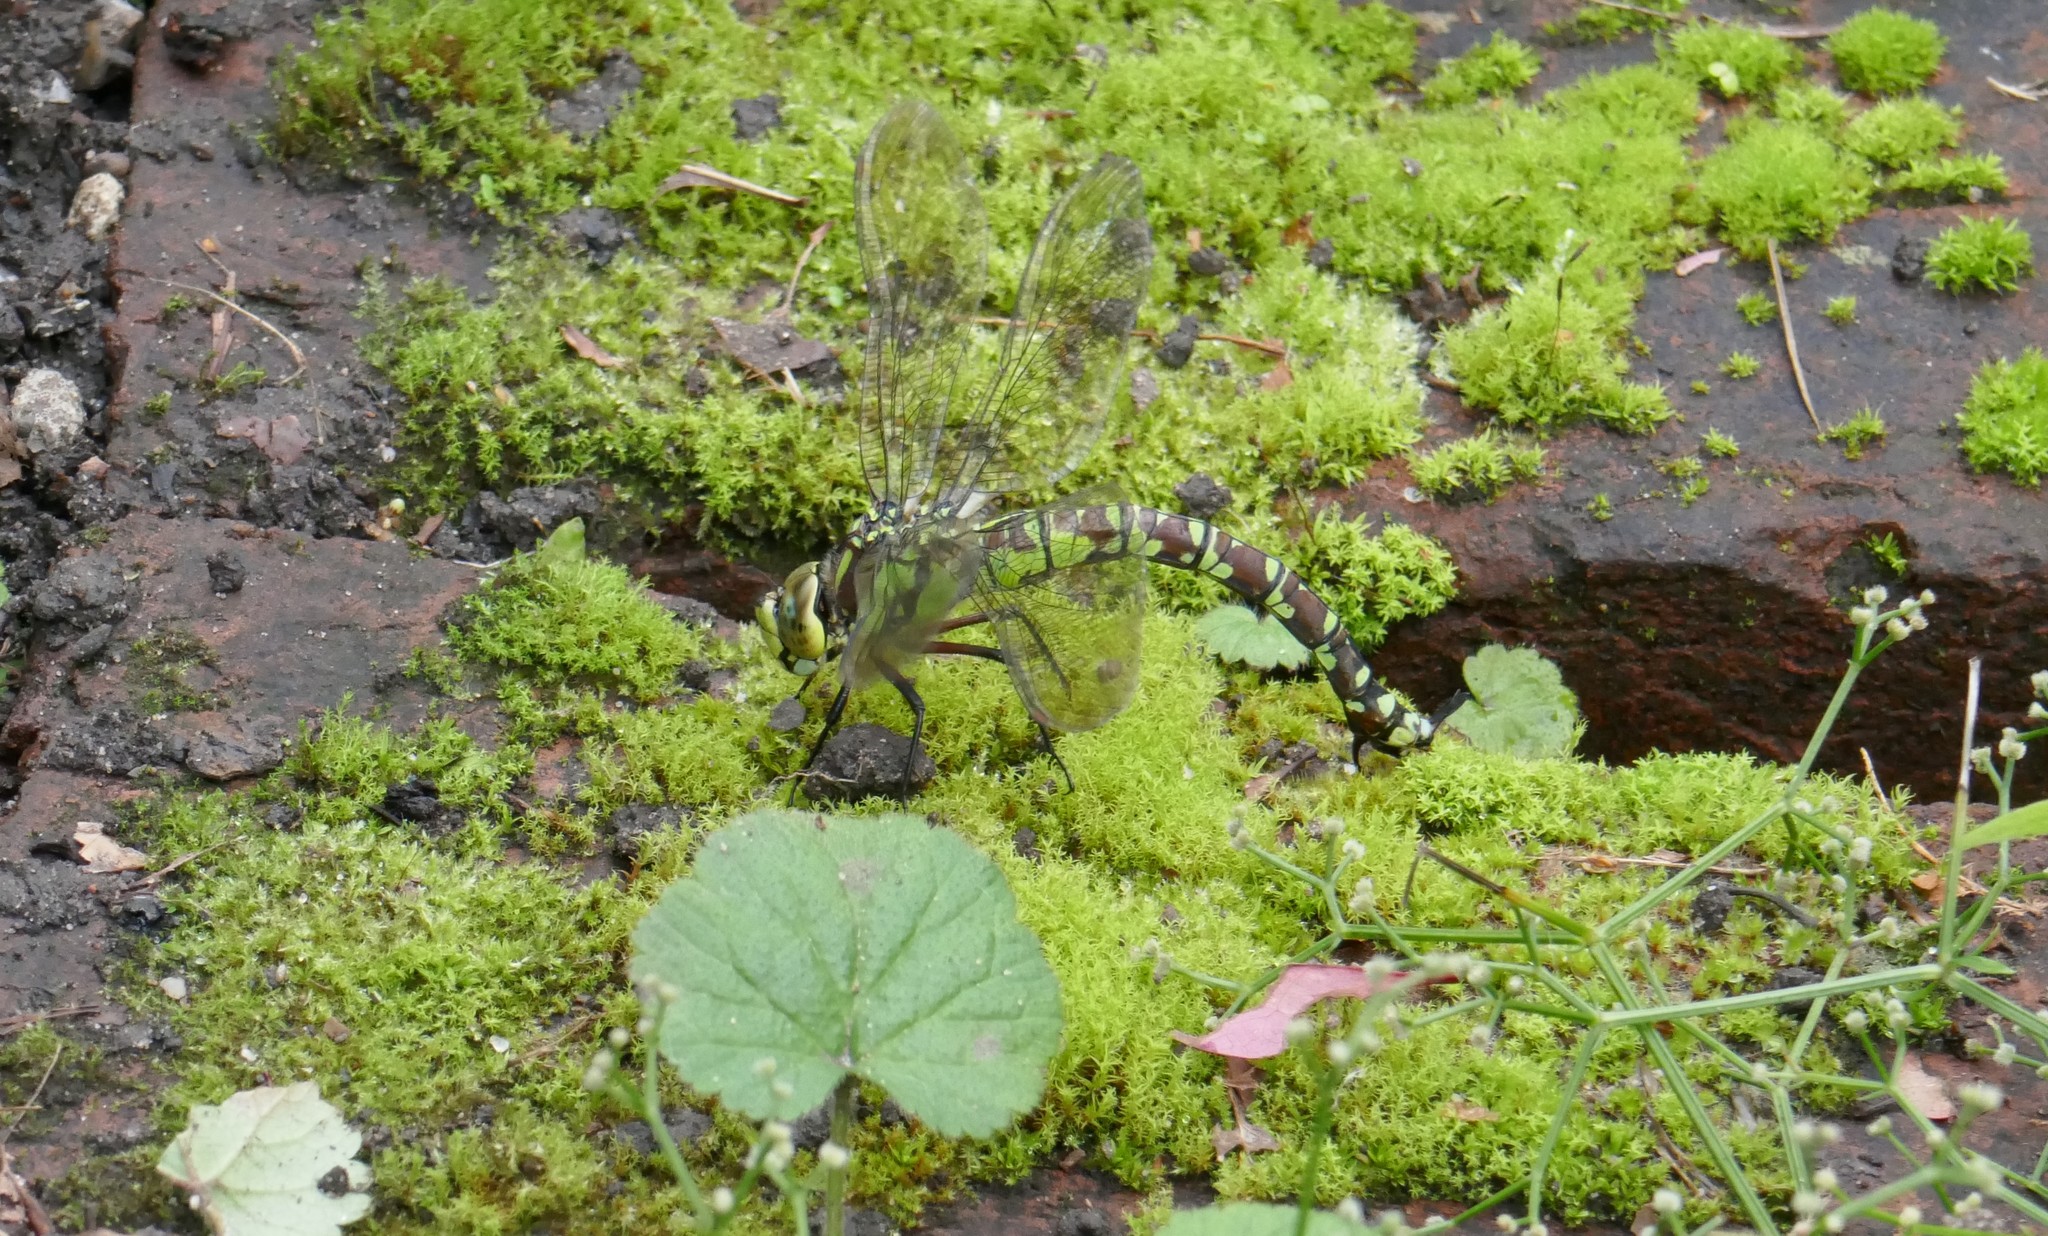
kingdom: Animalia
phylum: Arthropoda
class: Insecta
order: Odonata
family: Aeshnidae
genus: Aeshna
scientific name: Aeshna cyanea
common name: Southern hawker
